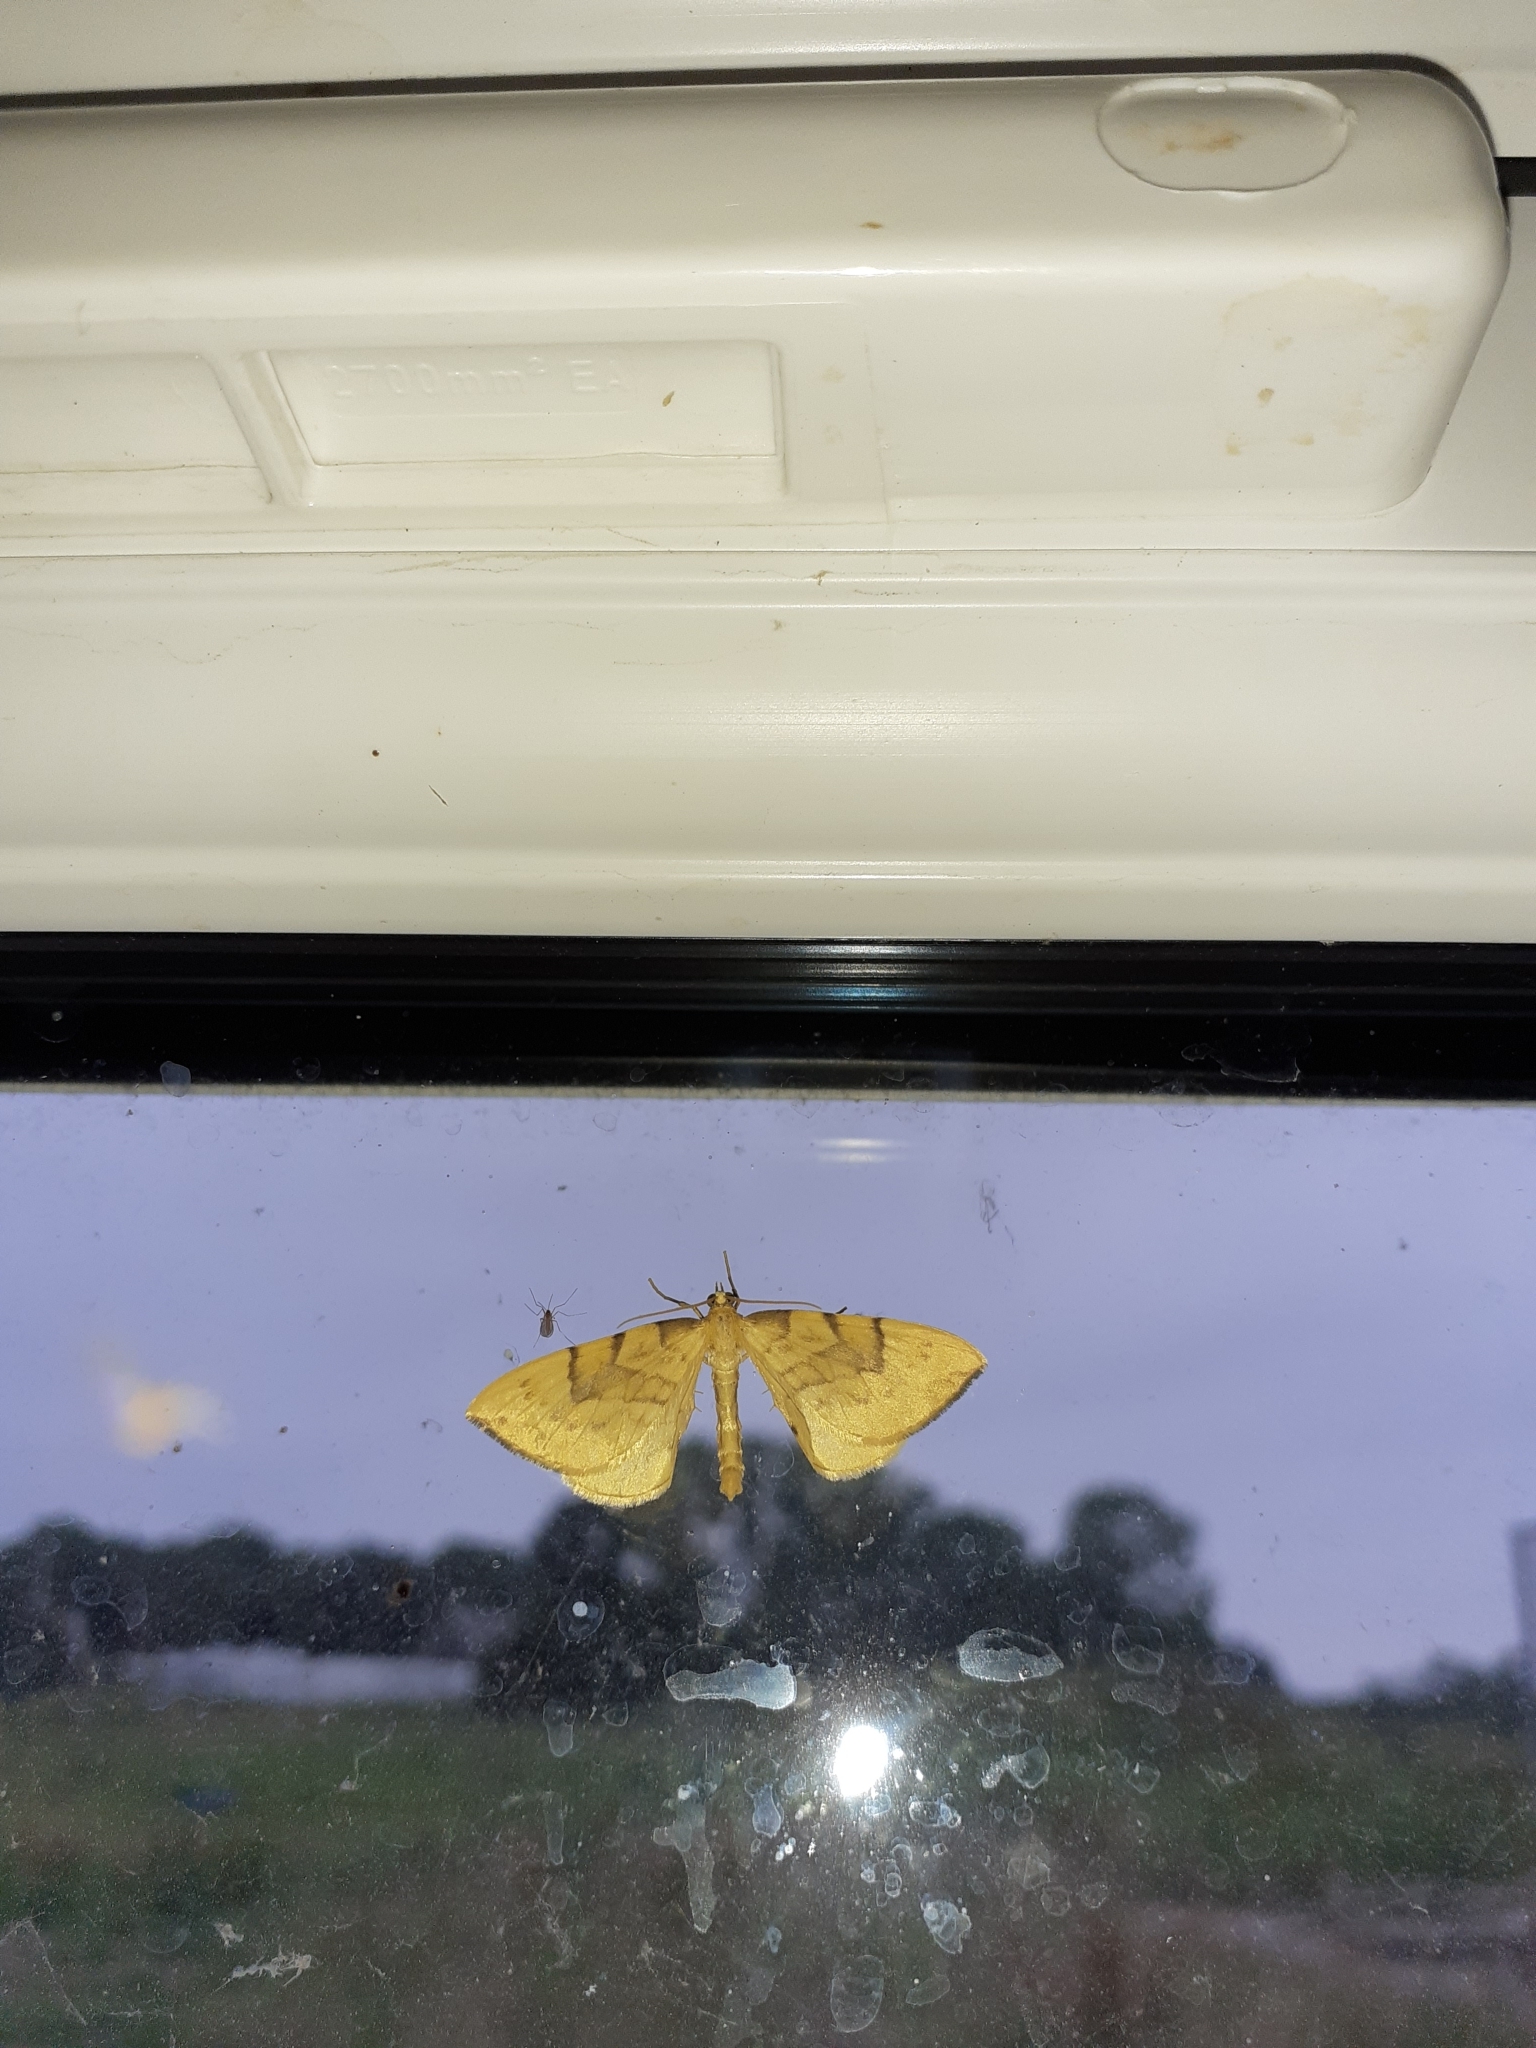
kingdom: Animalia
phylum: Arthropoda
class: Insecta
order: Lepidoptera
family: Geometridae
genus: Eulithis
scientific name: Eulithis pyraliata
